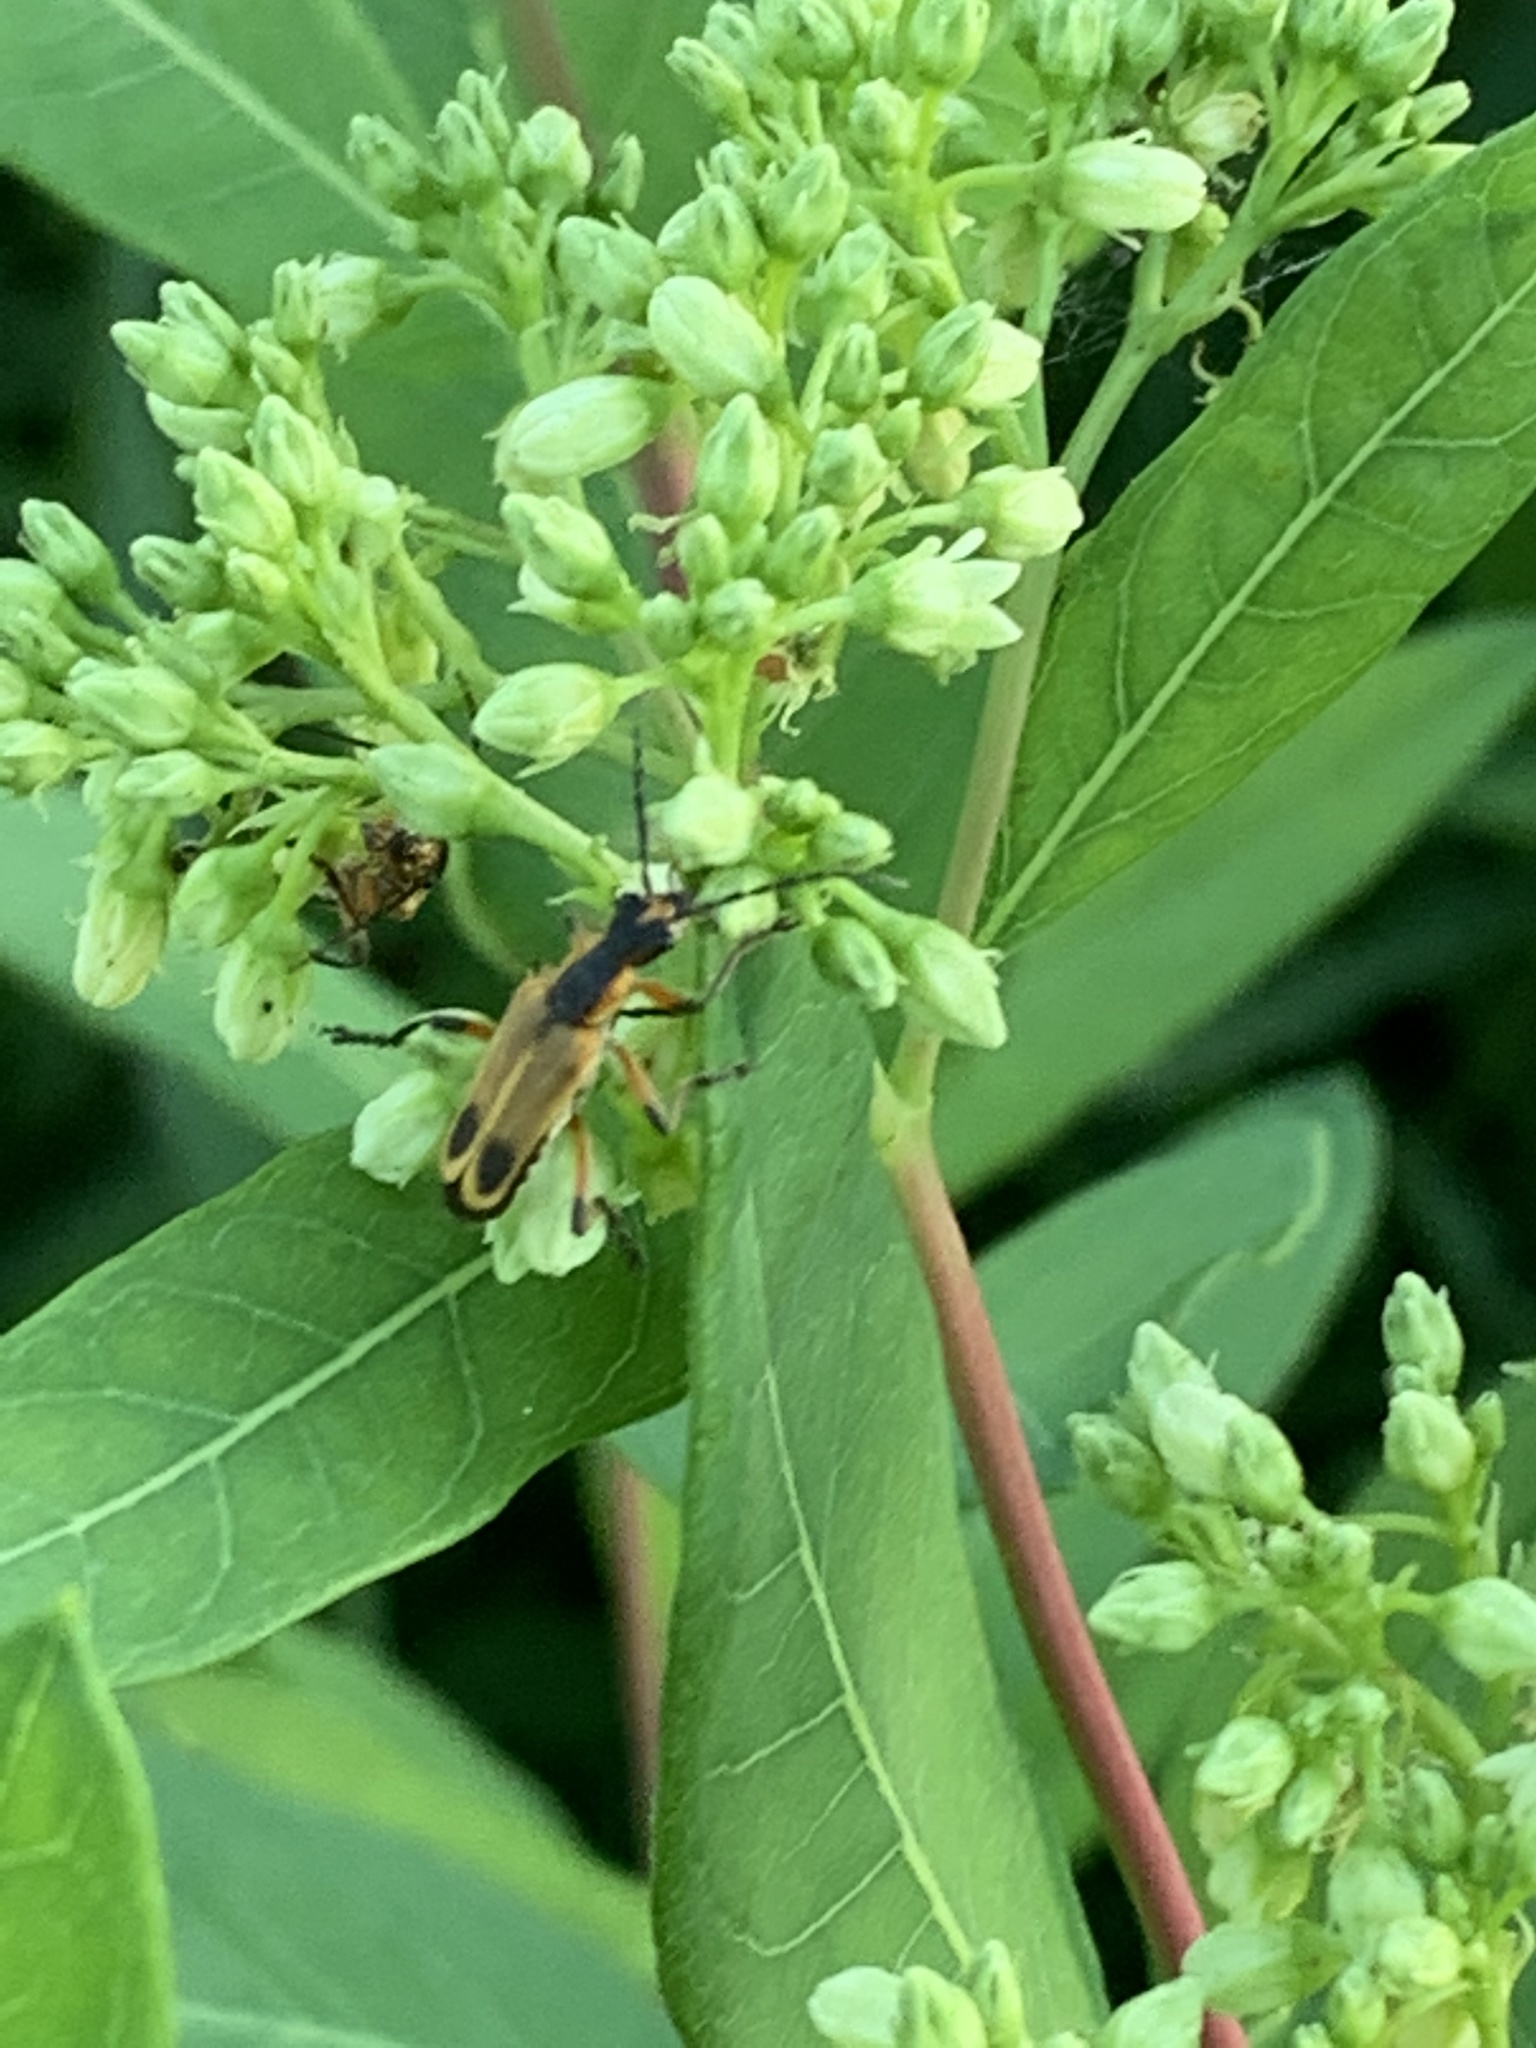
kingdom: Animalia
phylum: Arthropoda
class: Insecta
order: Coleoptera
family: Cantharidae
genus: Chauliognathus
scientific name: Chauliognathus marginatus
